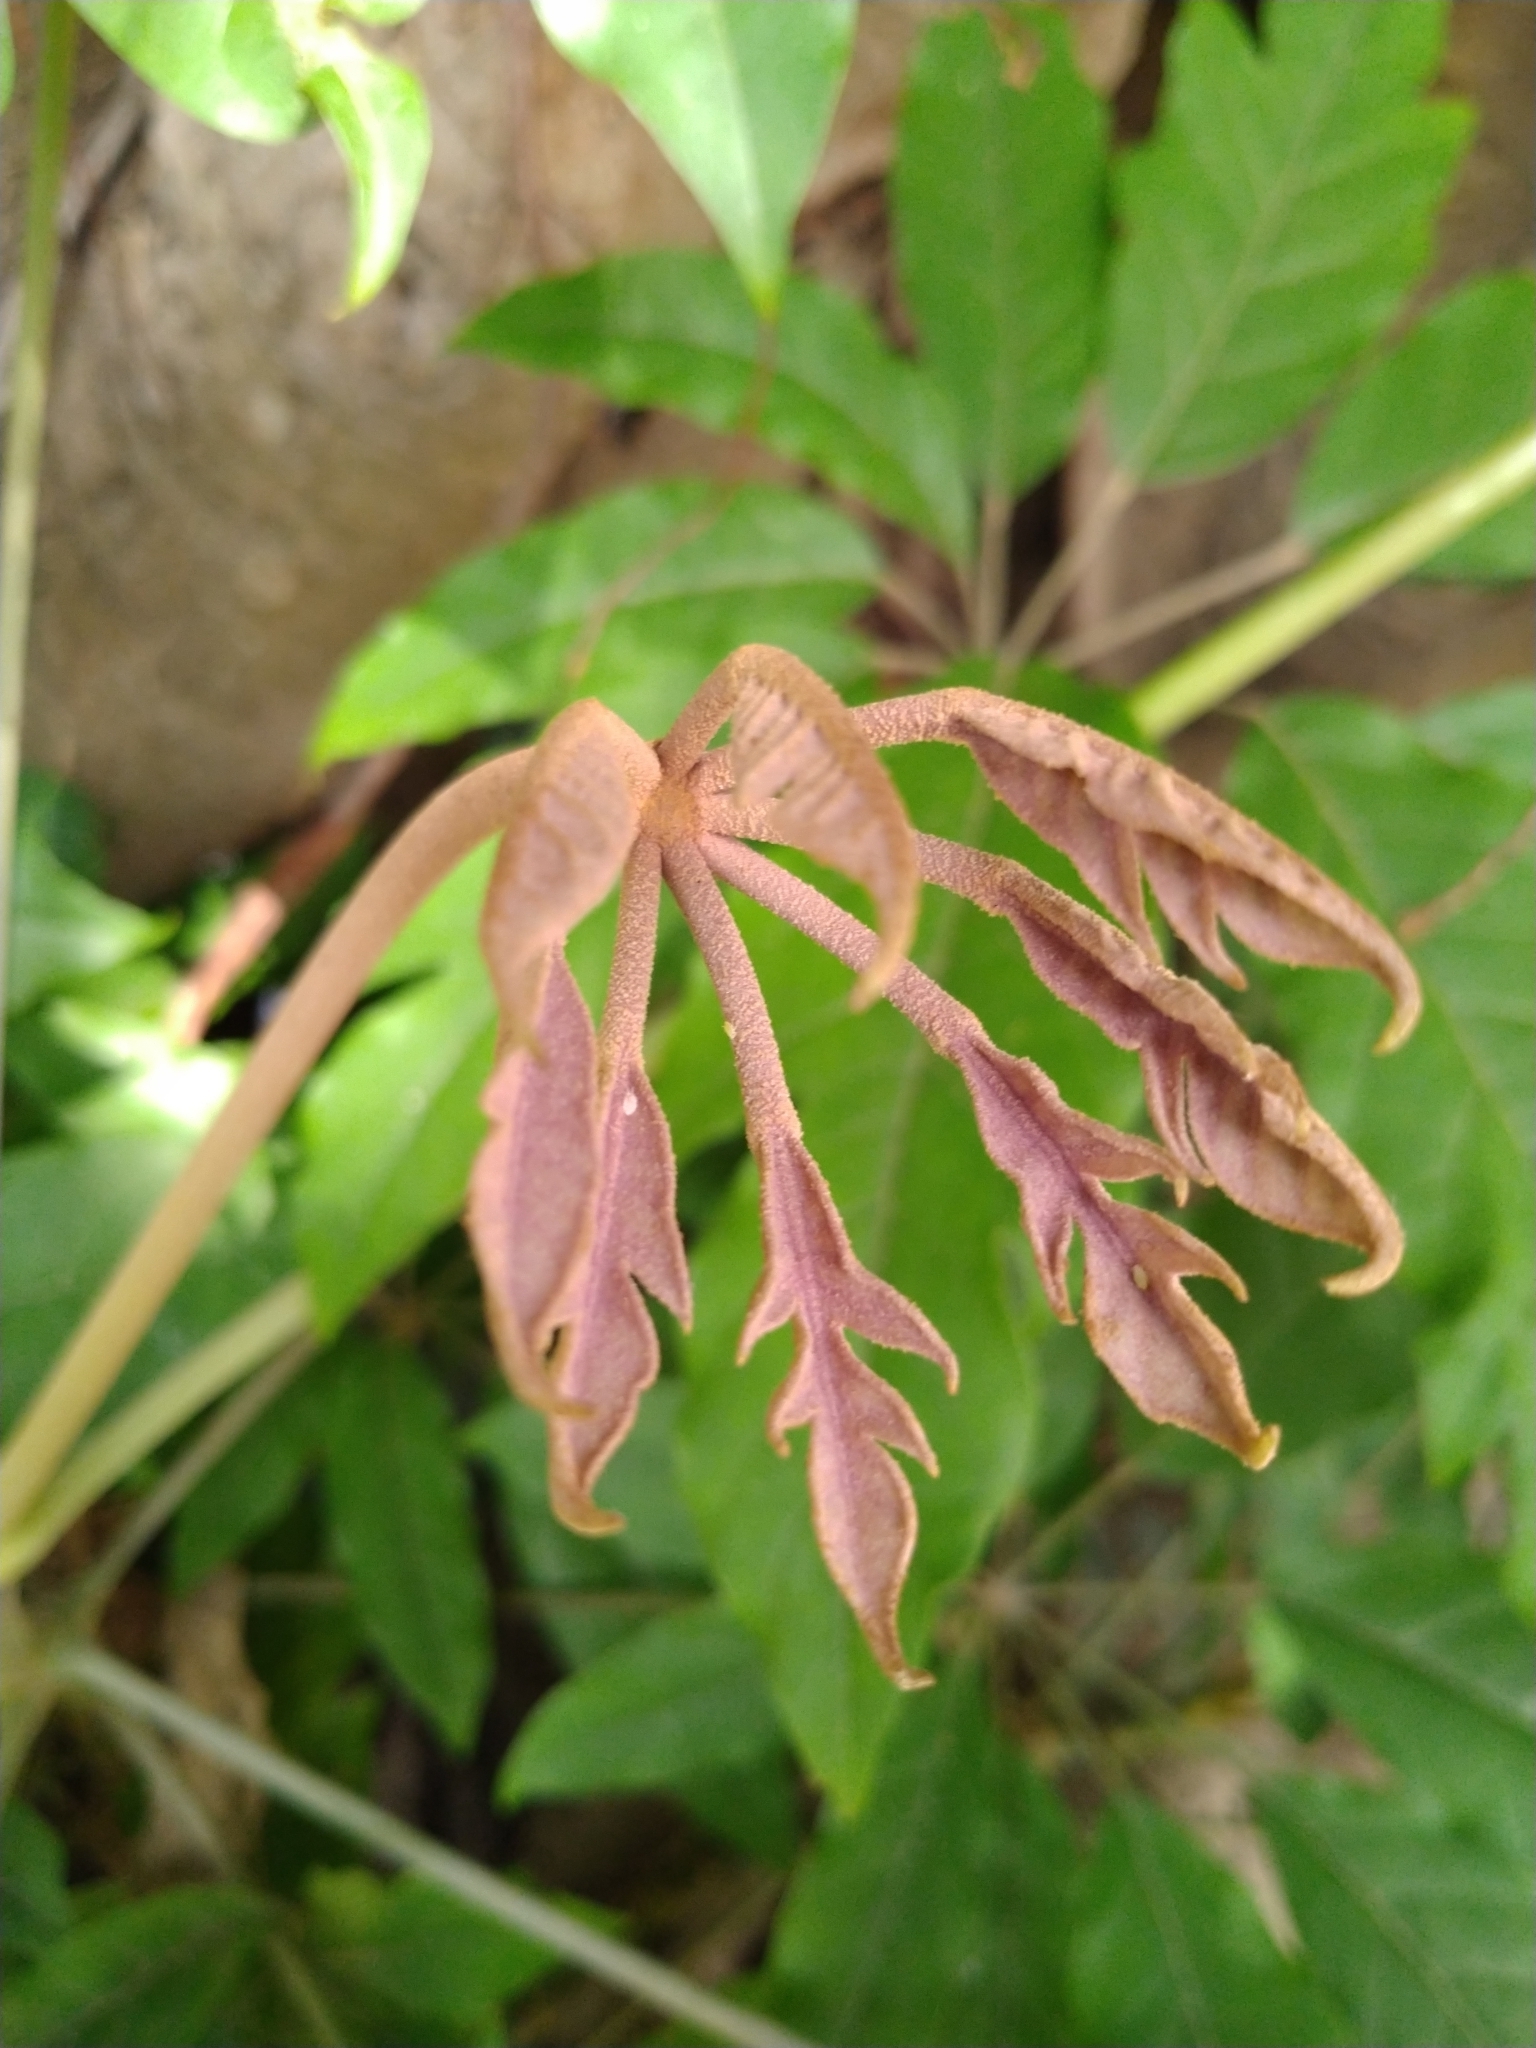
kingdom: Plantae
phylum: Tracheophyta
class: Magnoliopsida
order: Apiales
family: Araliaceae
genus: Heptapleurum
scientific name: Heptapleurum heptaphyllum
